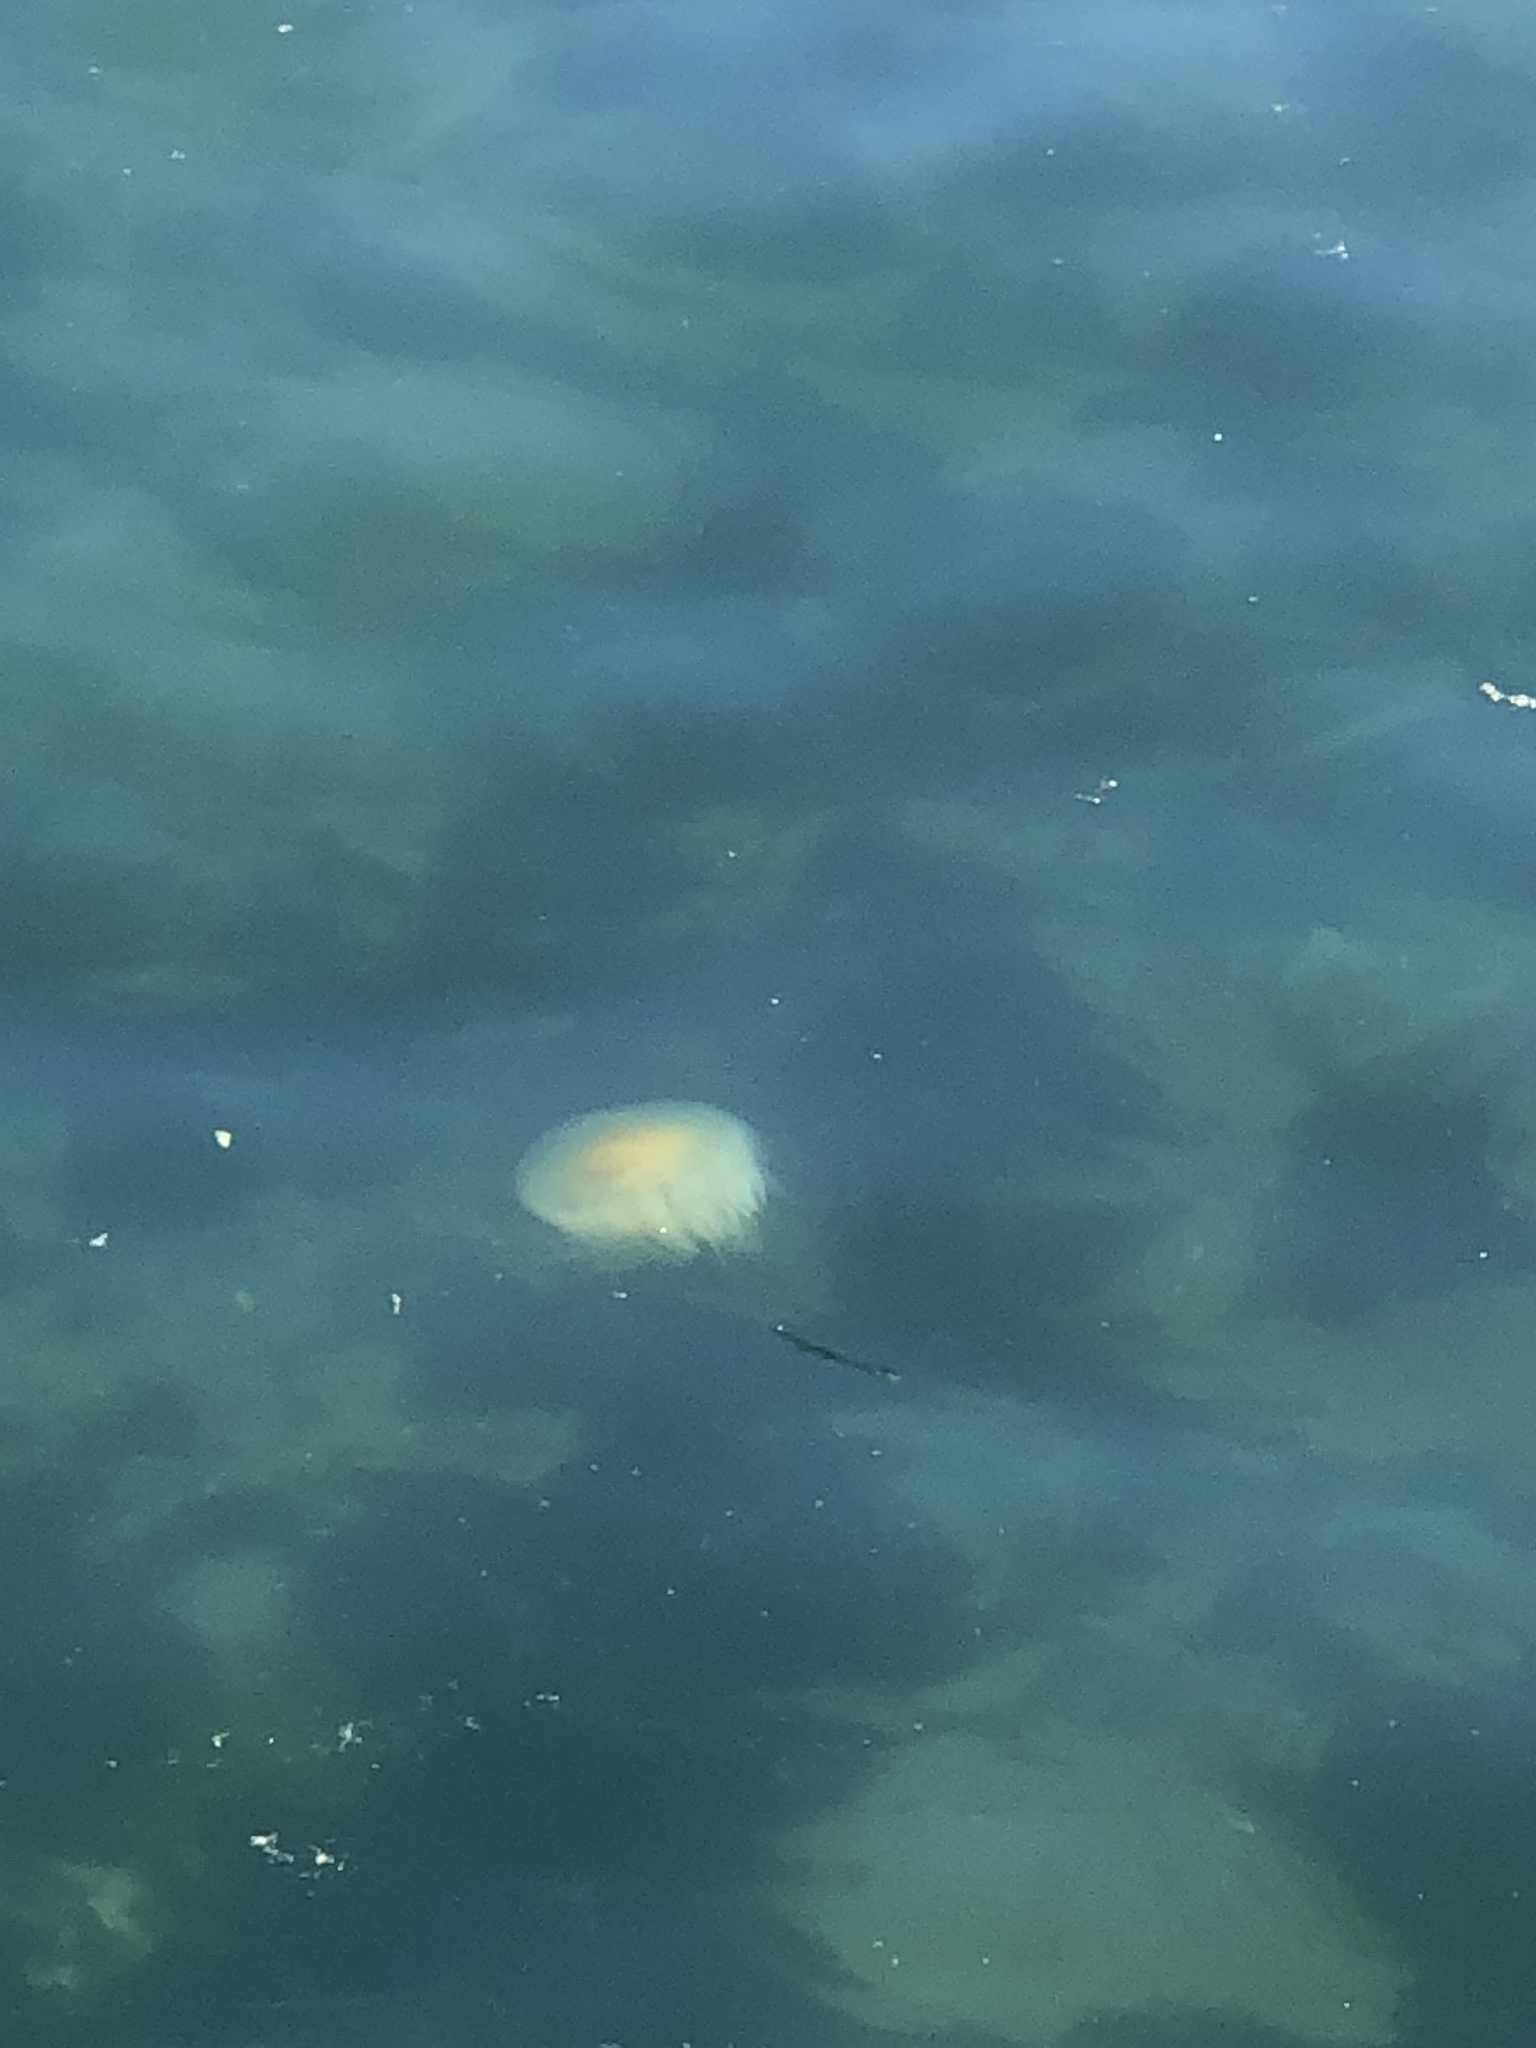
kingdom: Animalia
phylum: Cnidaria
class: Scyphozoa
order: Semaeostomeae
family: Phacellophoridae
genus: Phacellophora
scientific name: Phacellophora camtschatica
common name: Fried-egg jellyfish
